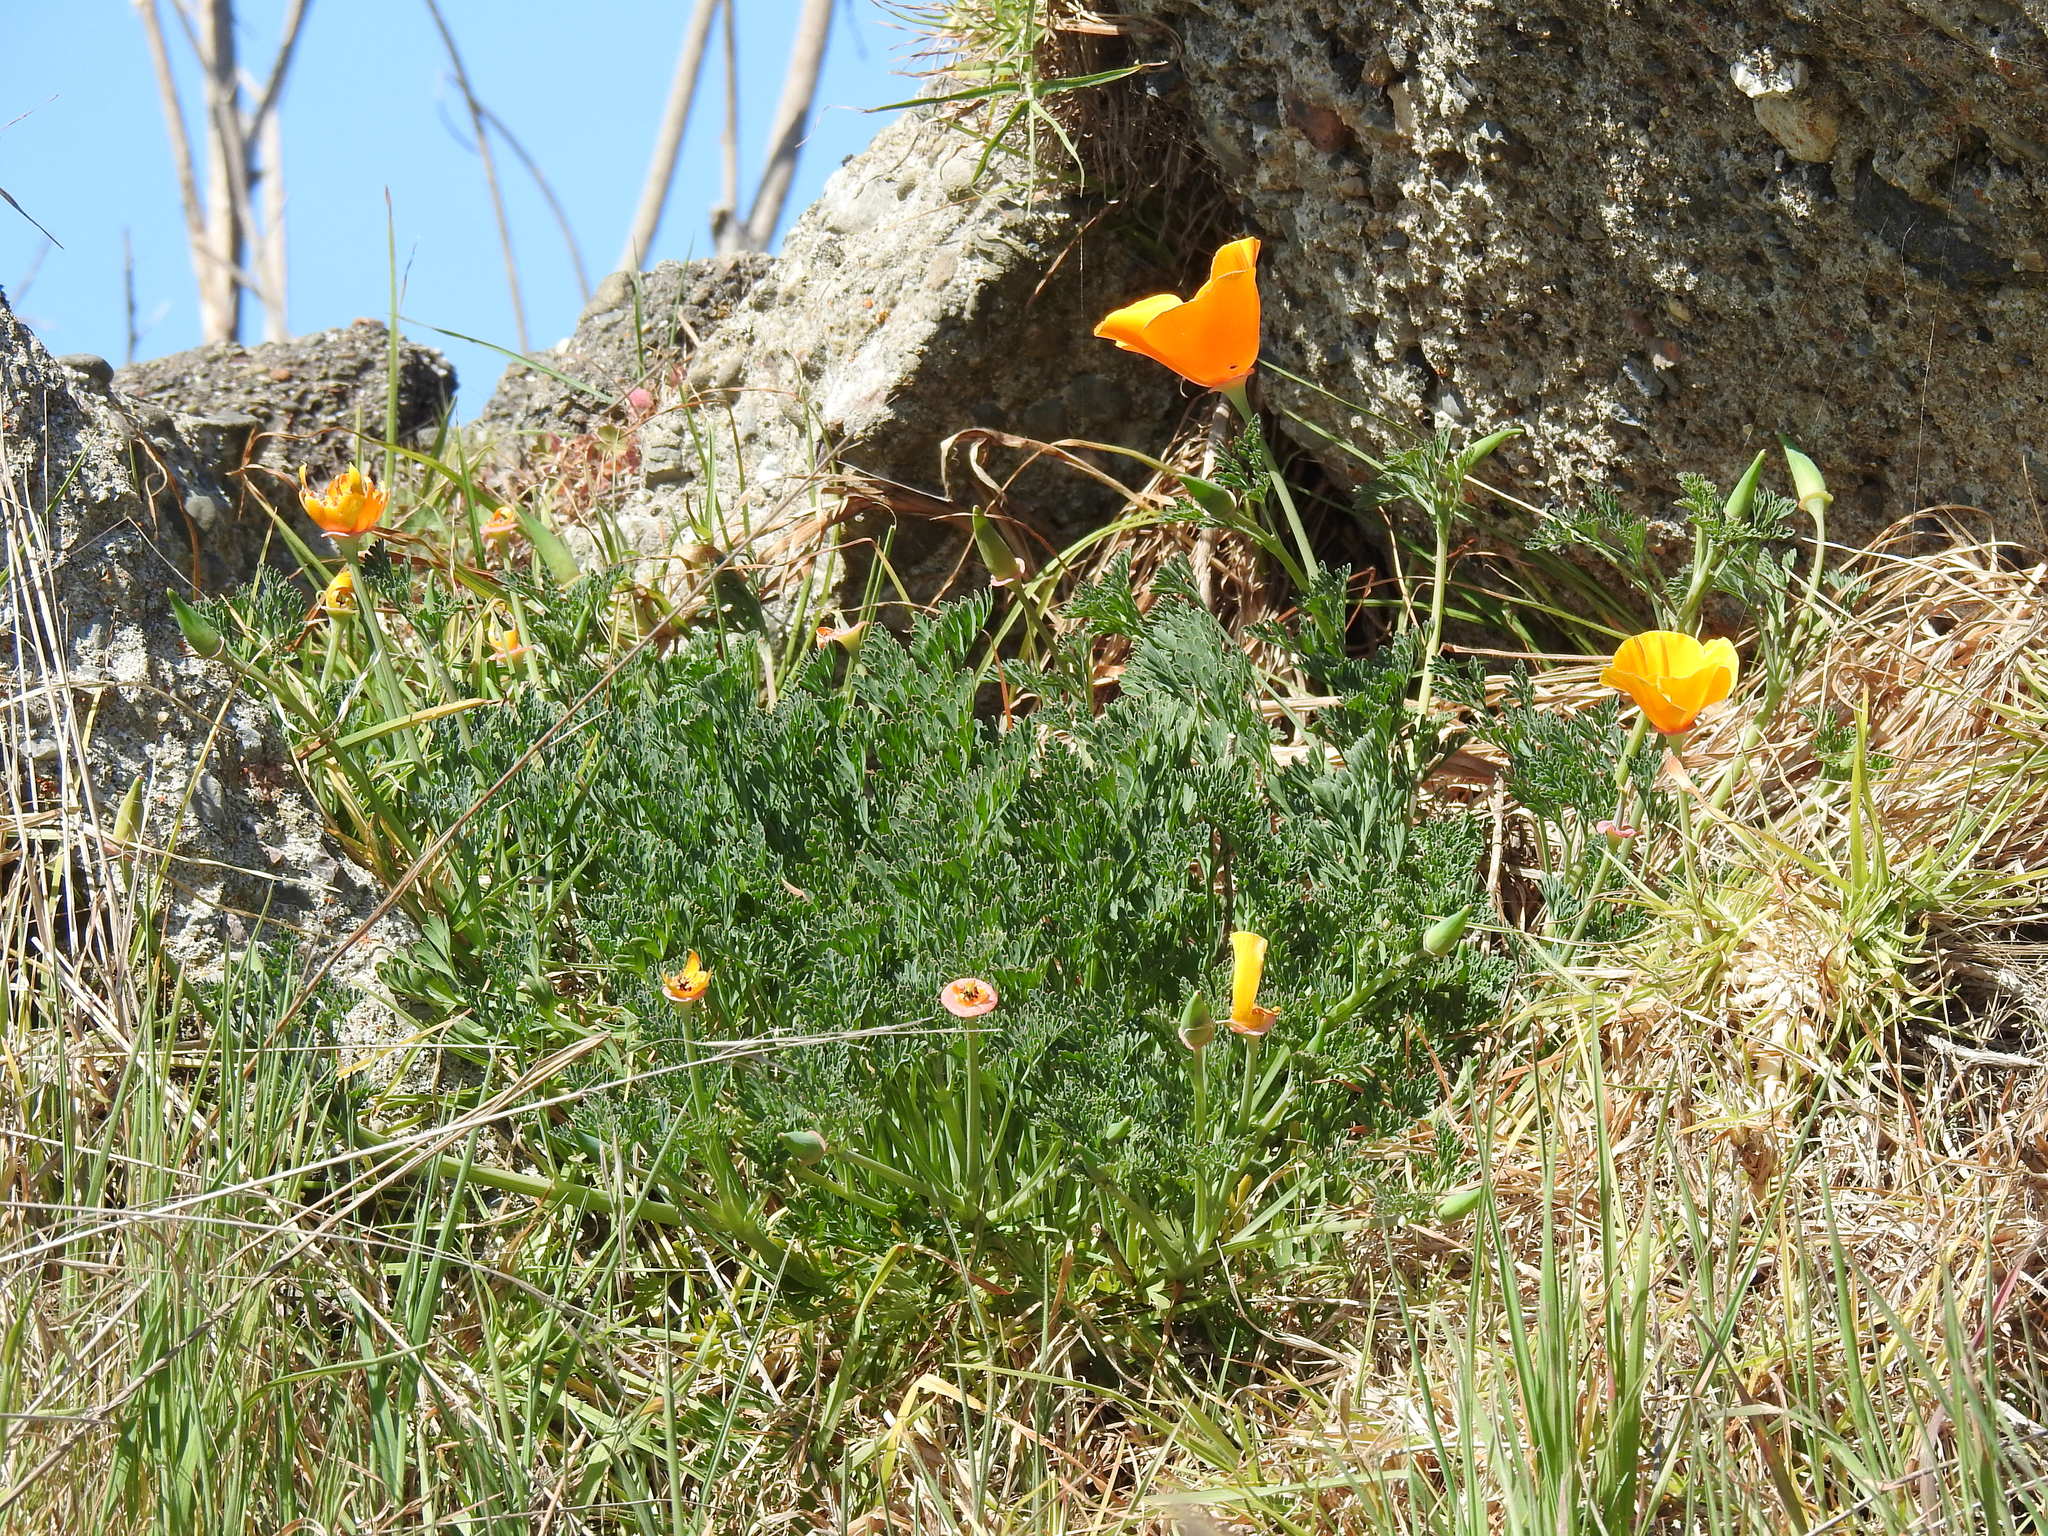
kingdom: Plantae
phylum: Tracheophyta
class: Magnoliopsida
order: Ranunculales
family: Papaveraceae
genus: Eschscholzia
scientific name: Eschscholzia californica
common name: California poppy
